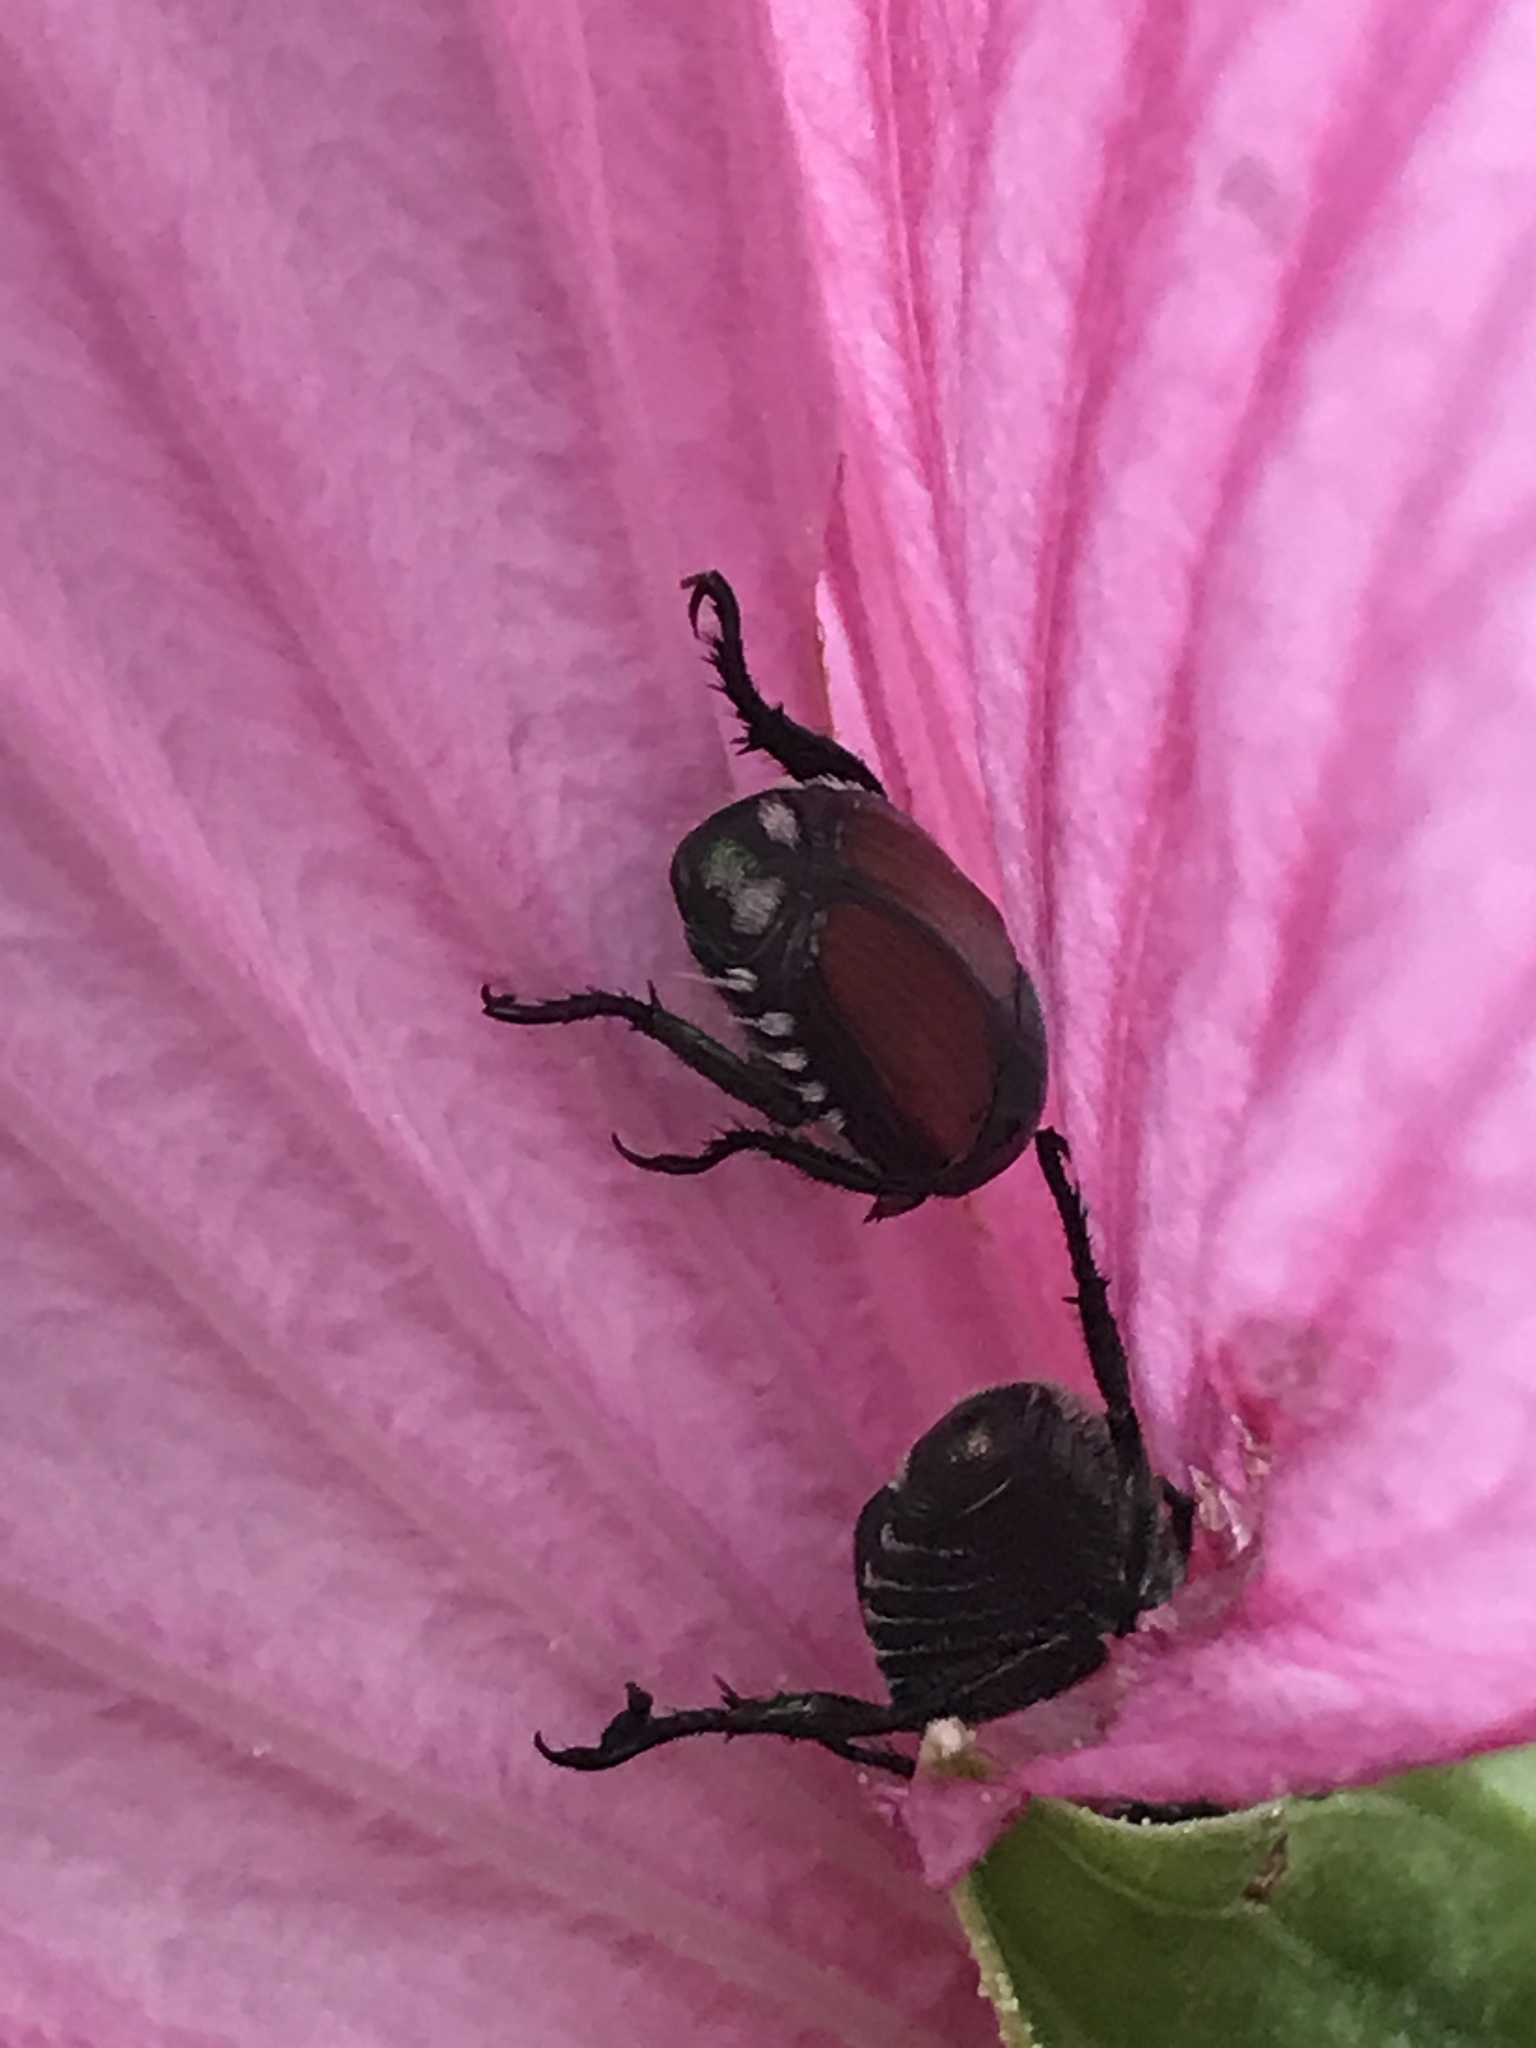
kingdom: Animalia
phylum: Arthropoda
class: Insecta
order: Coleoptera
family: Scarabaeidae
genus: Popillia
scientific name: Popillia japonica
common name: Japanese beetle
